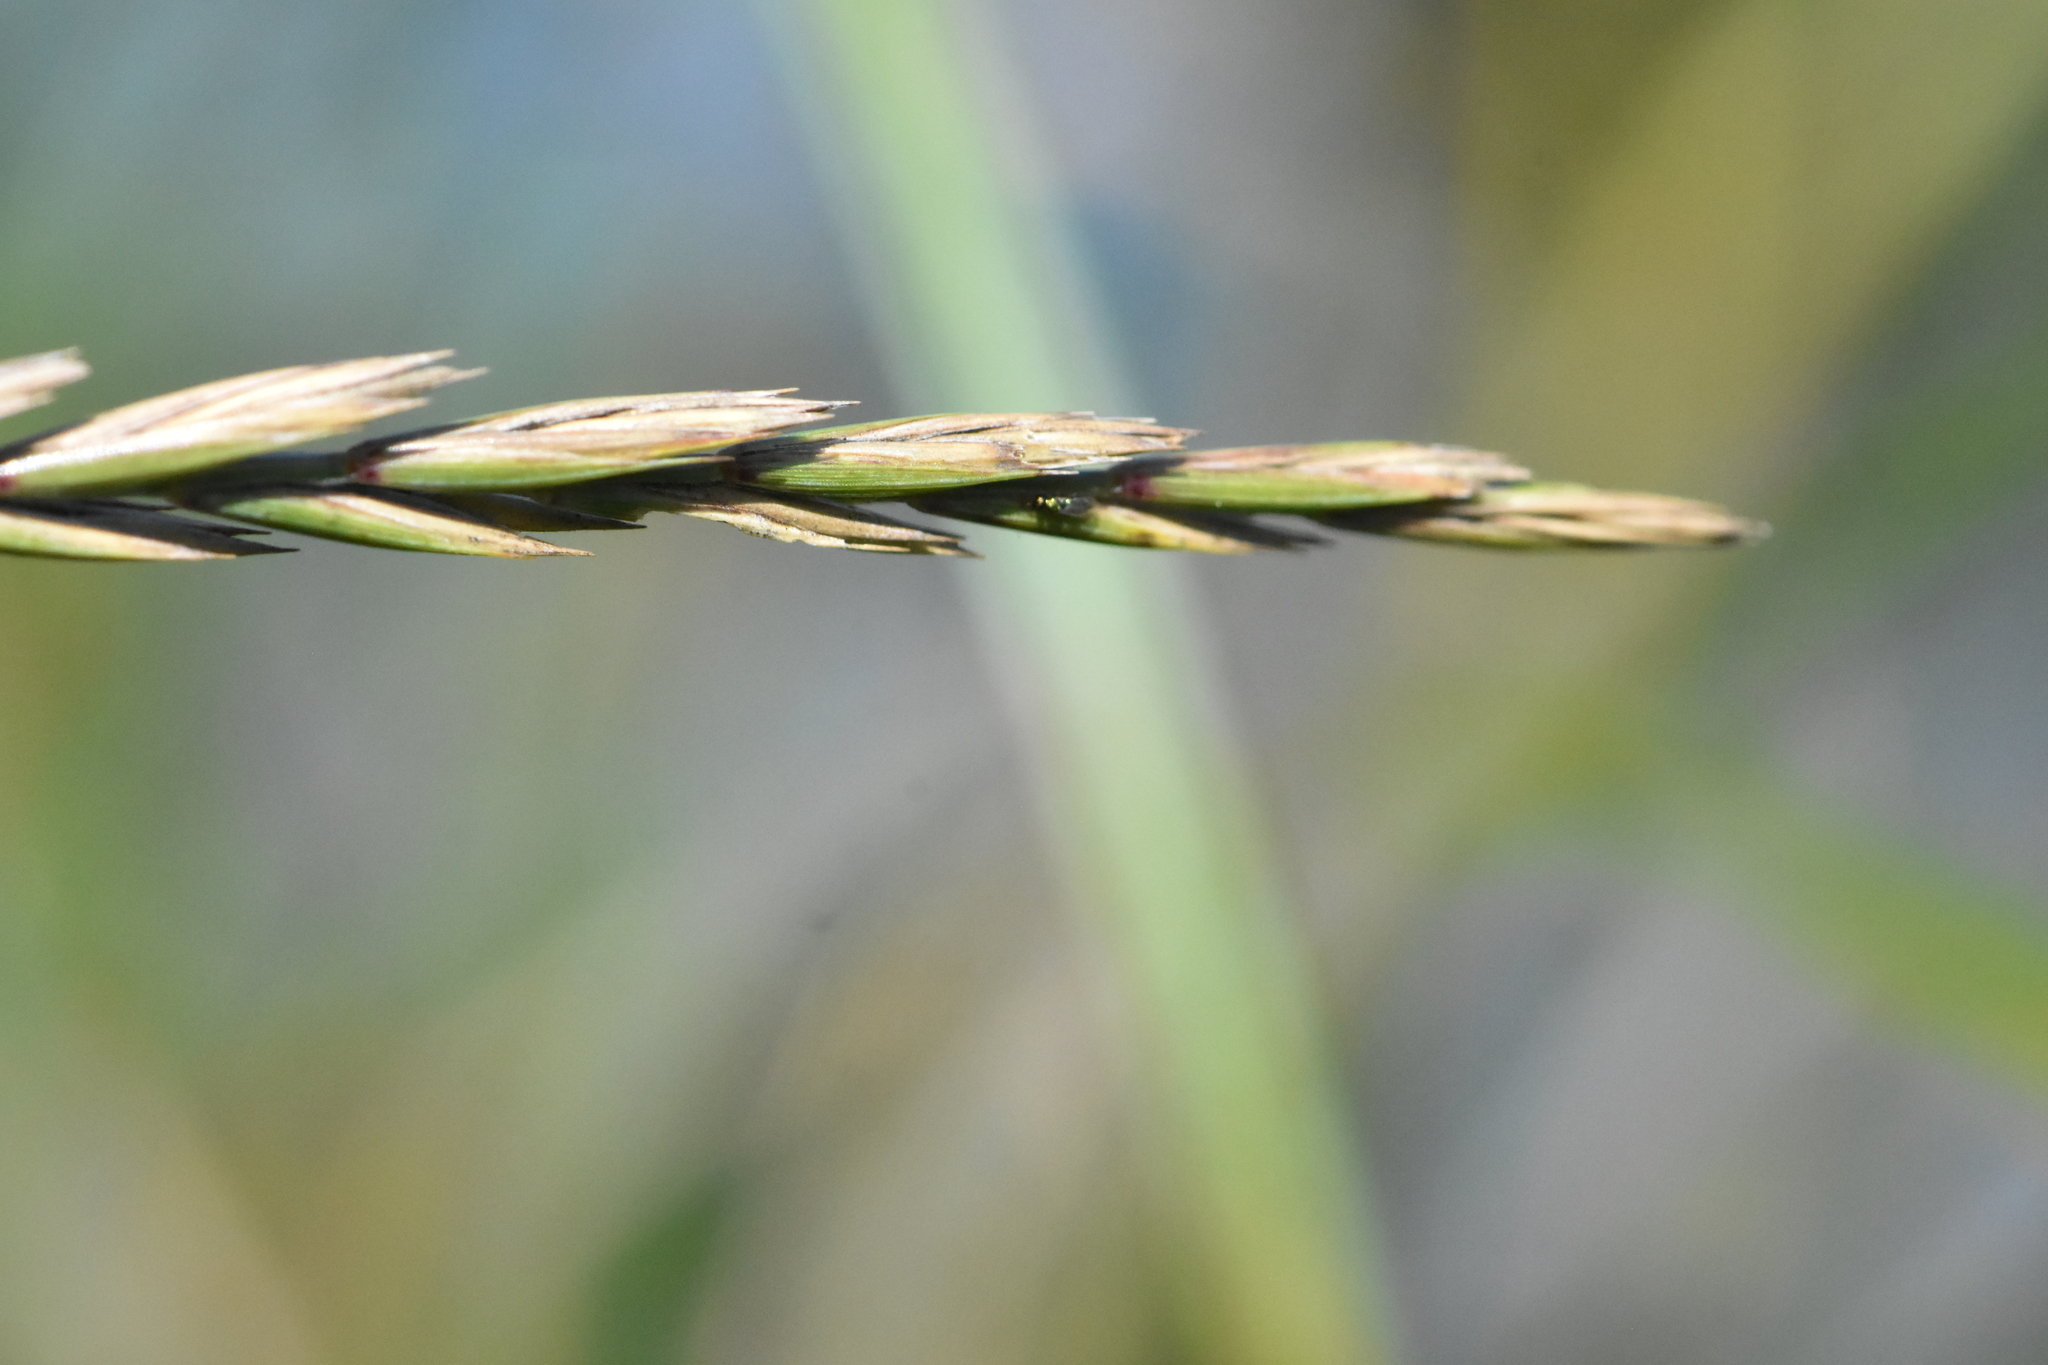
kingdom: Plantae
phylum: Tracheophyta
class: Liliopsida
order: Poales
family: Poaceae
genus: Elymus
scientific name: Elymus repens
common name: Quackgrass
